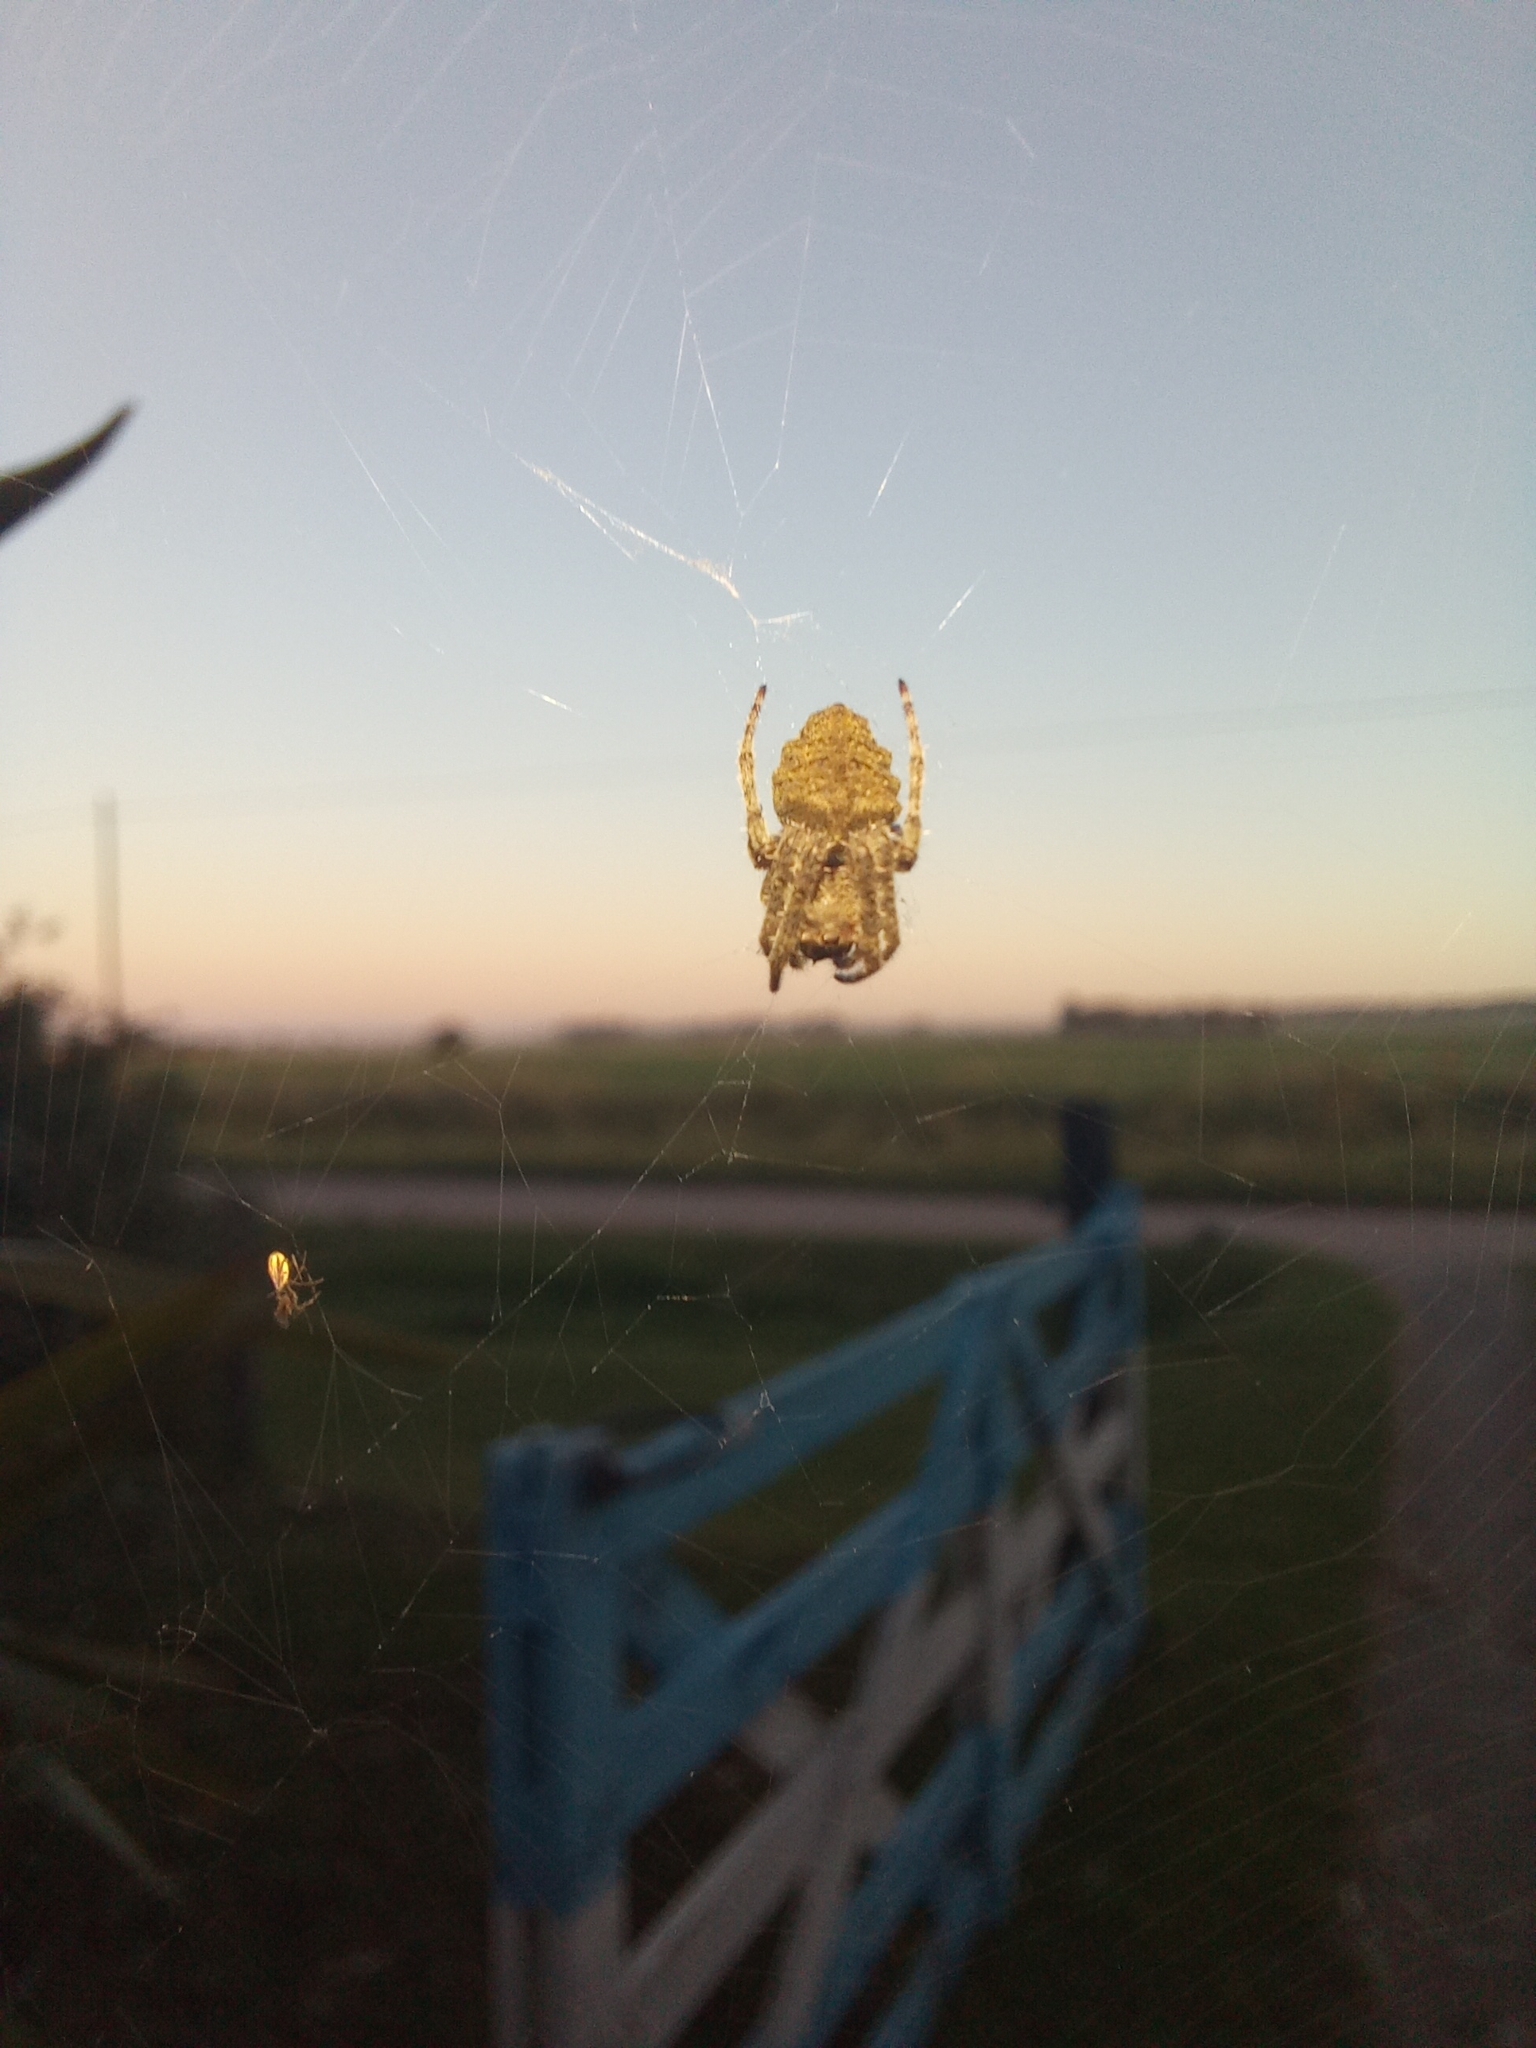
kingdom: Animalia
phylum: Arthropoda
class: Arachnida
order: Araneae
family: Araneidae
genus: Parawixia
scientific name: Parawixia audax
